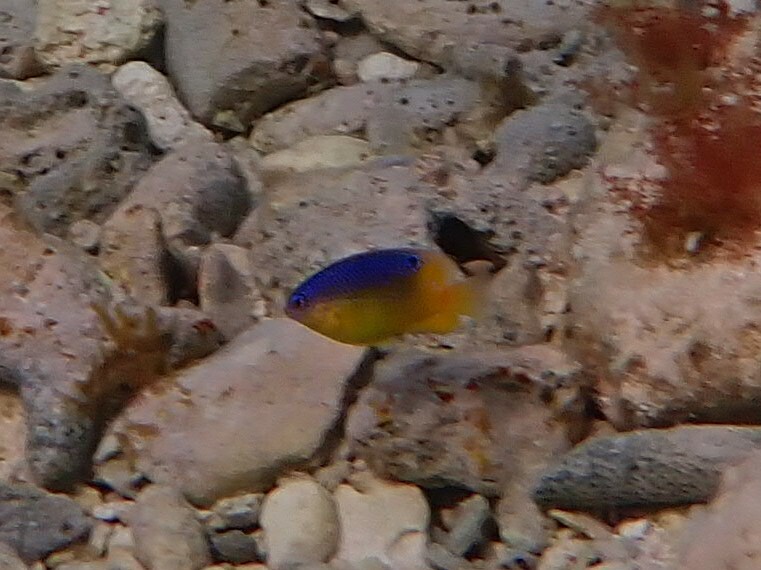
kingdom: Animalia
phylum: Chordata
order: Perciformes
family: Pomacentridae
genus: Stegastes
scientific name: Stegastes leucostictus
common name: Beaugregory
